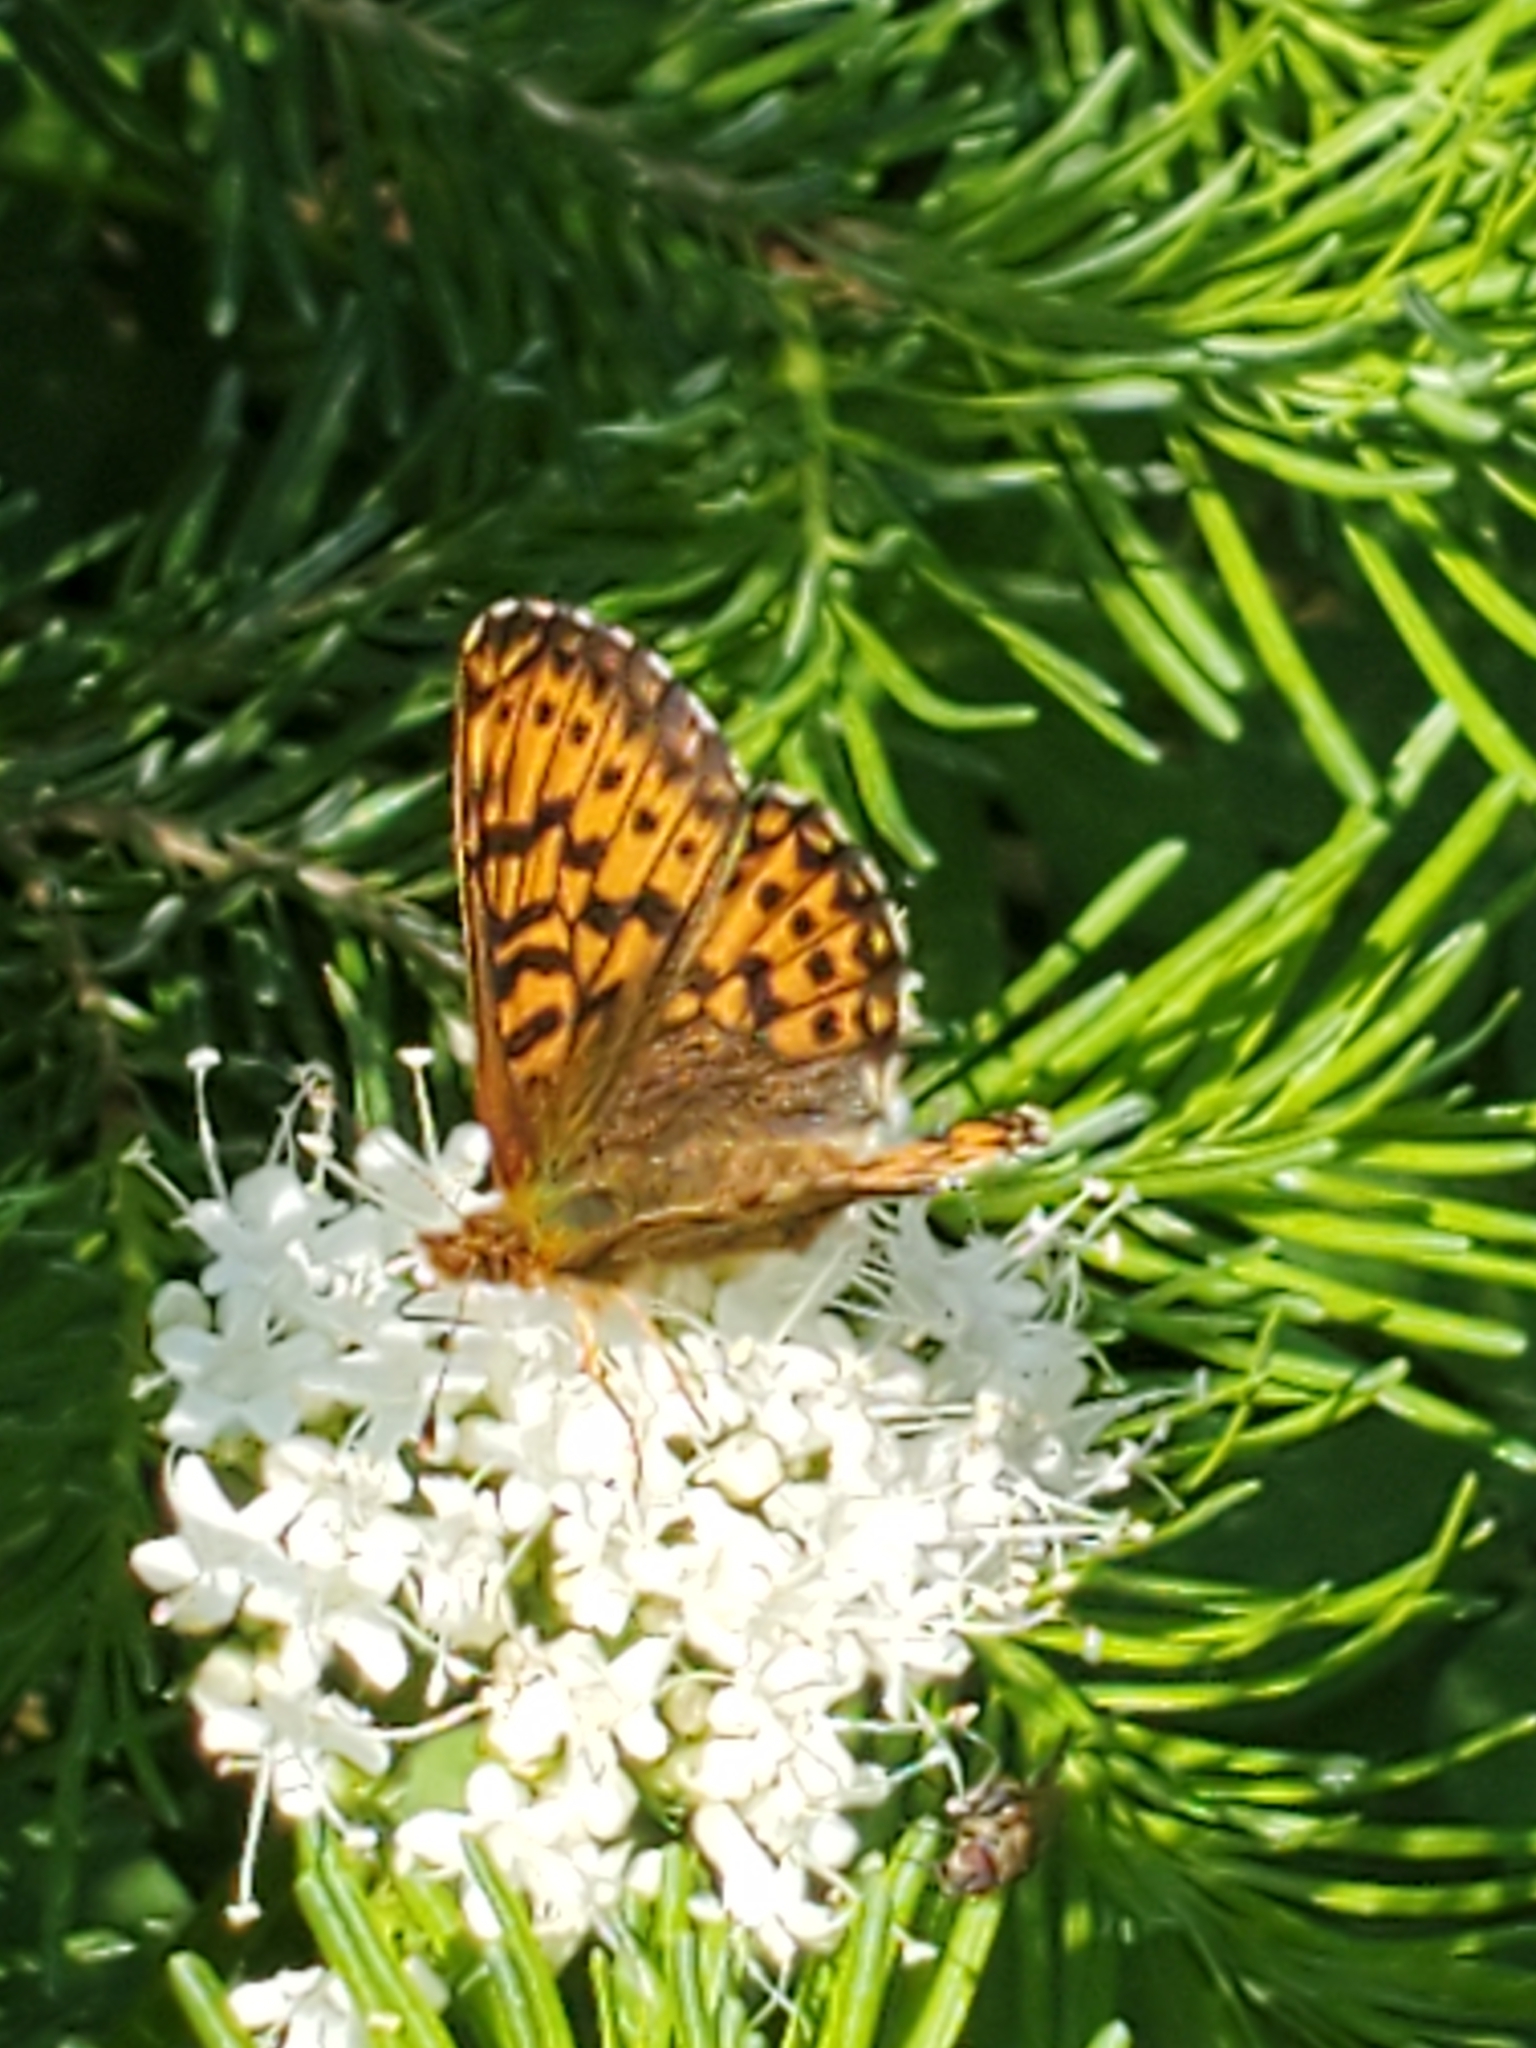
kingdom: Animalia
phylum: Arthropoda
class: Insecta
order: Lepidoptera
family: Nymphalidae
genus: Boloria
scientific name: Boloria chariclea
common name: Arctic fritillary
